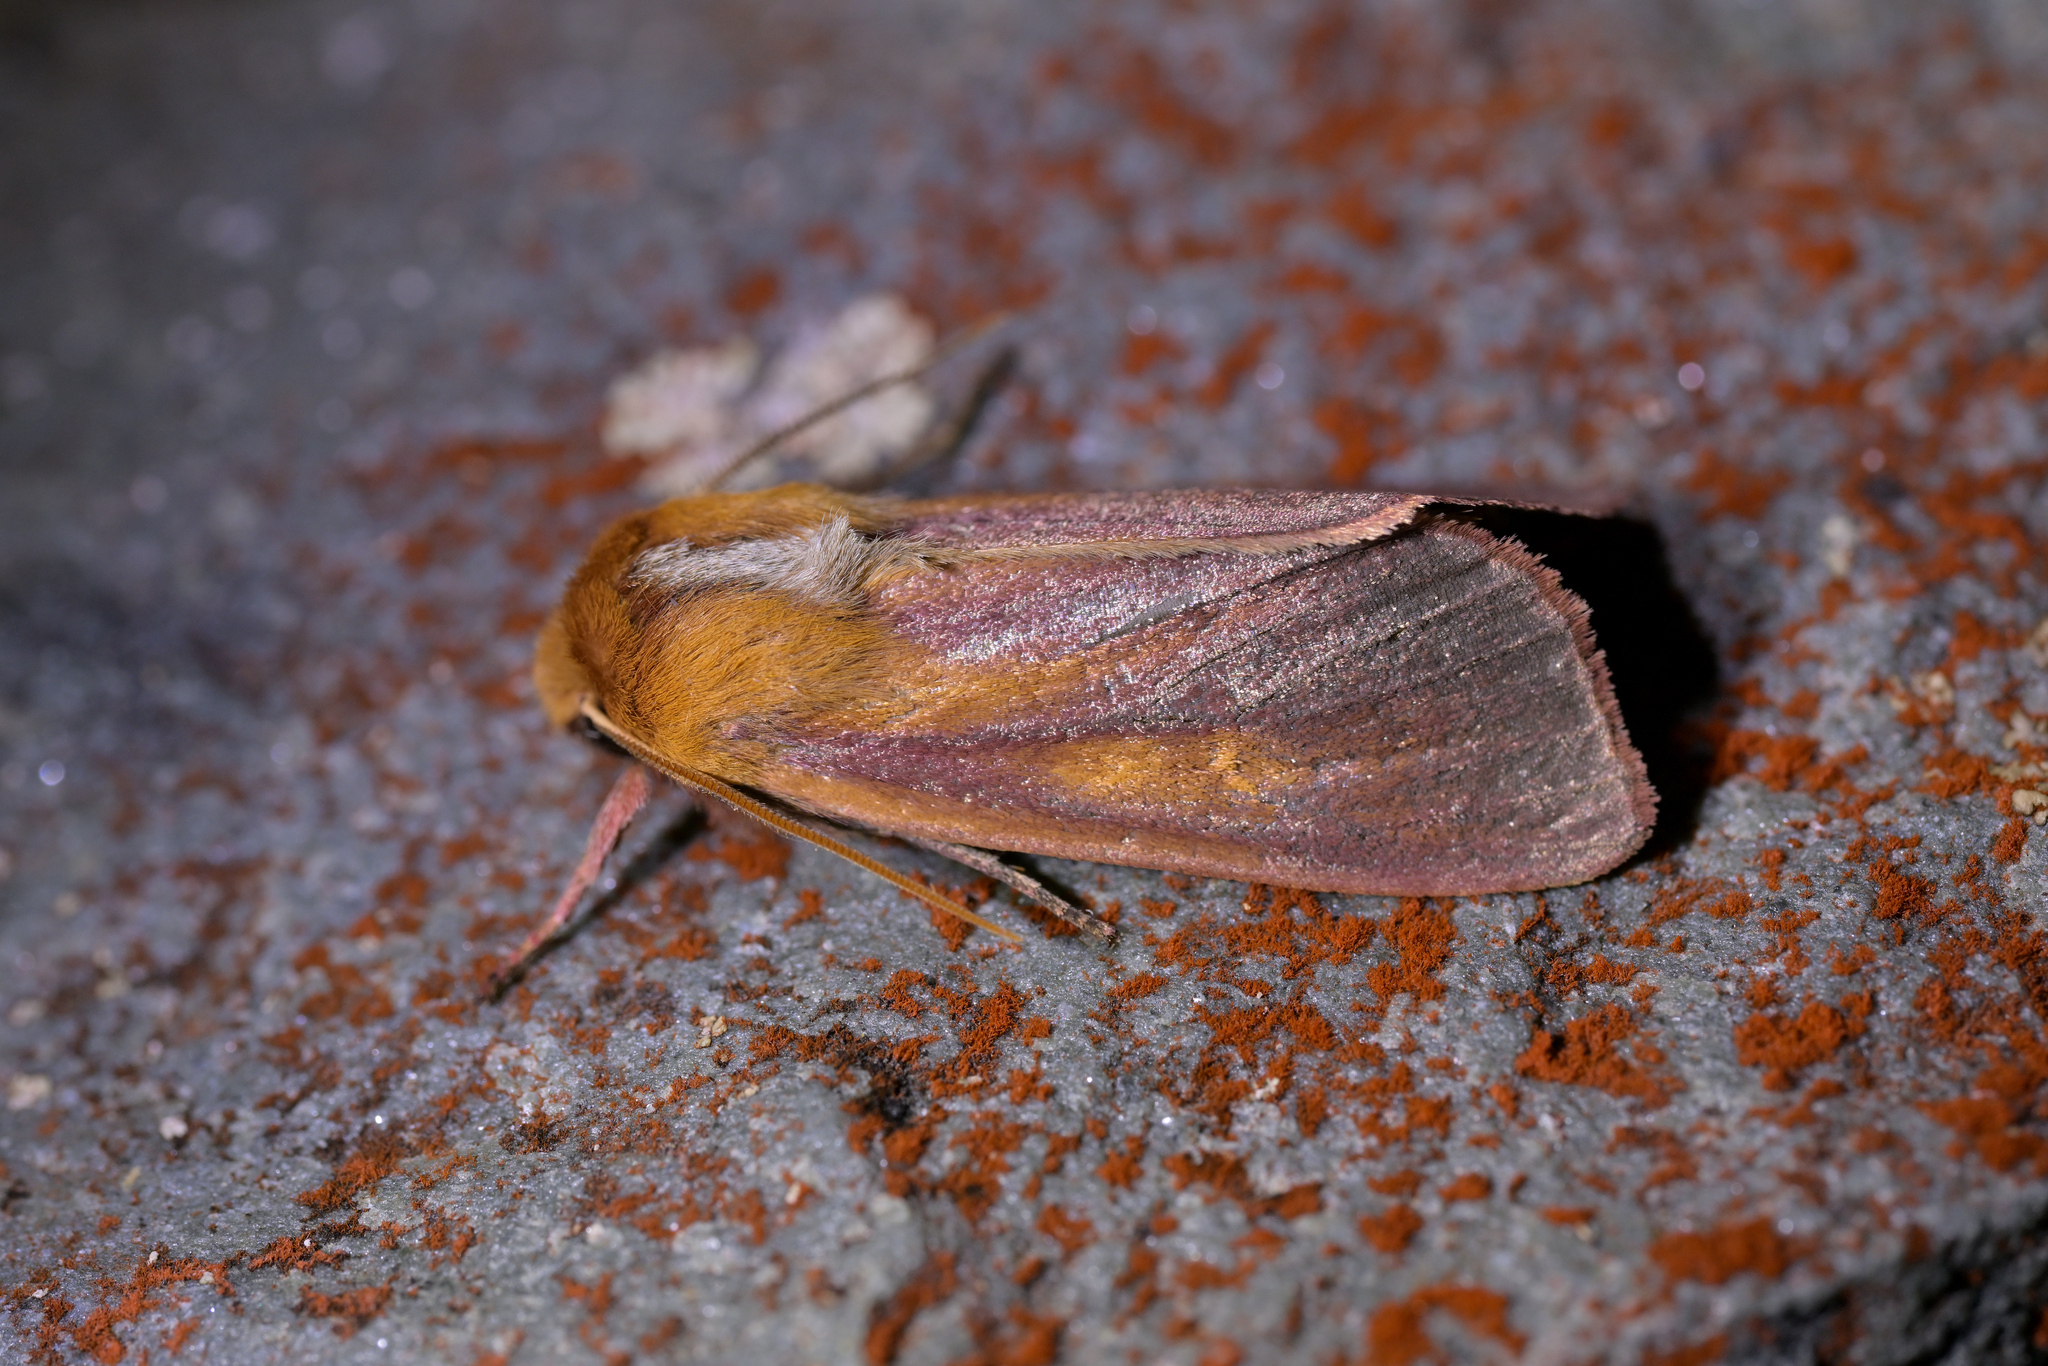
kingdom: Animalia
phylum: Arthropoda
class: Insecta
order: Lepidoptera
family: Noctuidae
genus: Ichneutica
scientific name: Ichneutica
